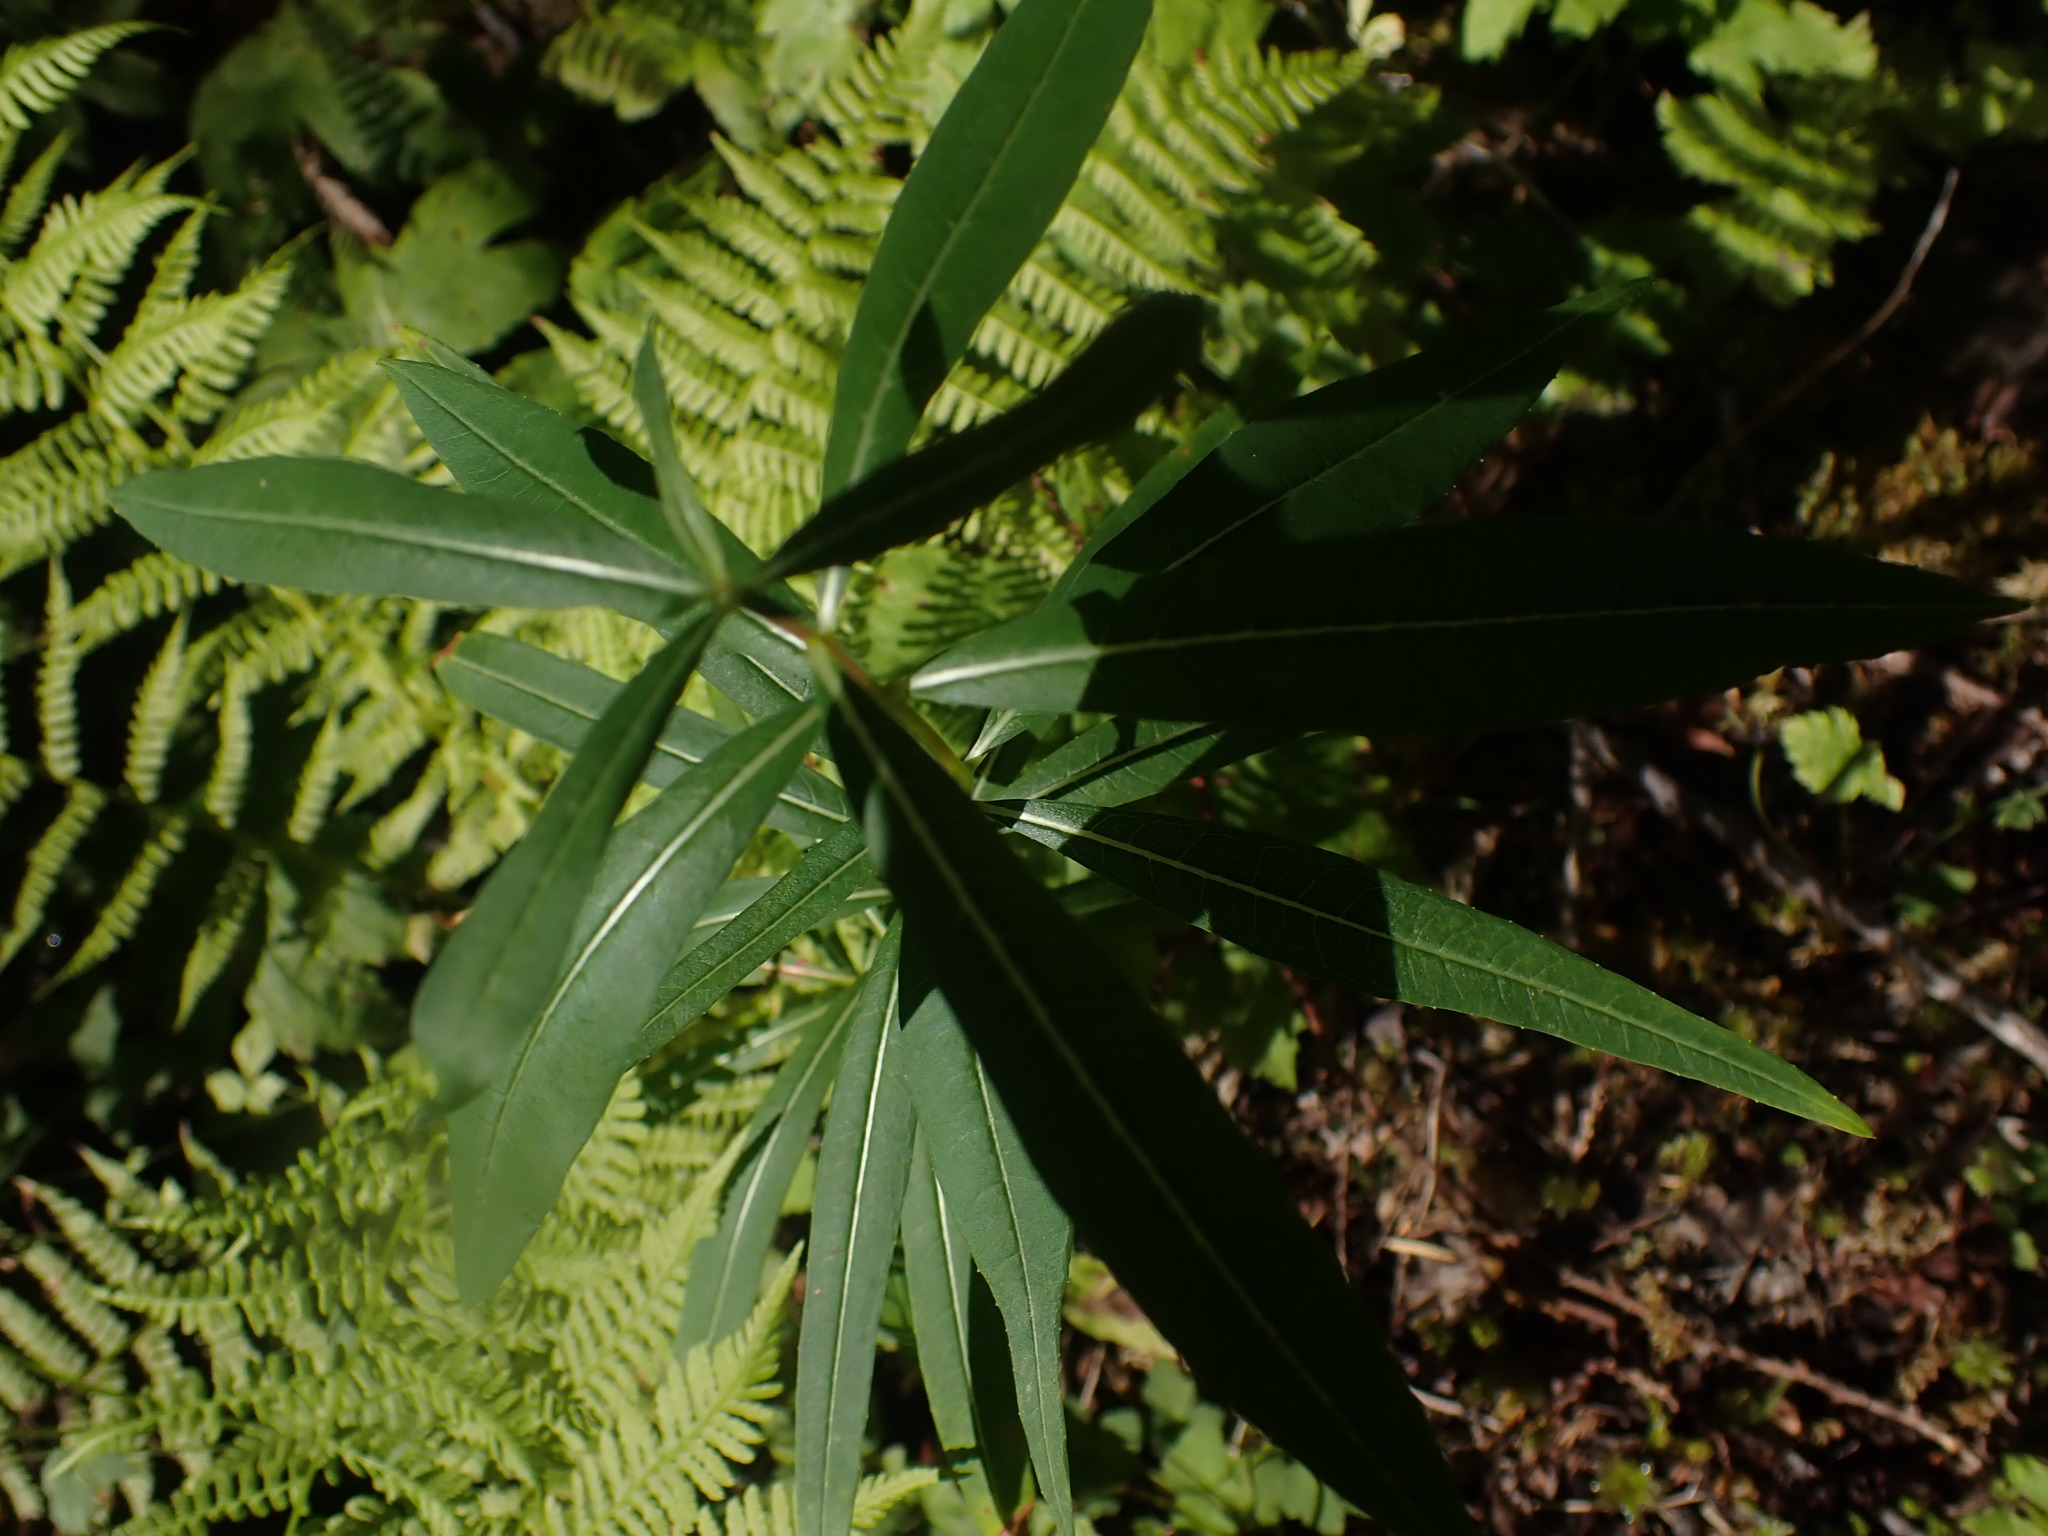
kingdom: Plantae
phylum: Tracheophyta
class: Magnoliopsida
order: Myrtales
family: Onagraceae
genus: Chamaenerion
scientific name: Chamaenerion angustifolium
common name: Fireweed
